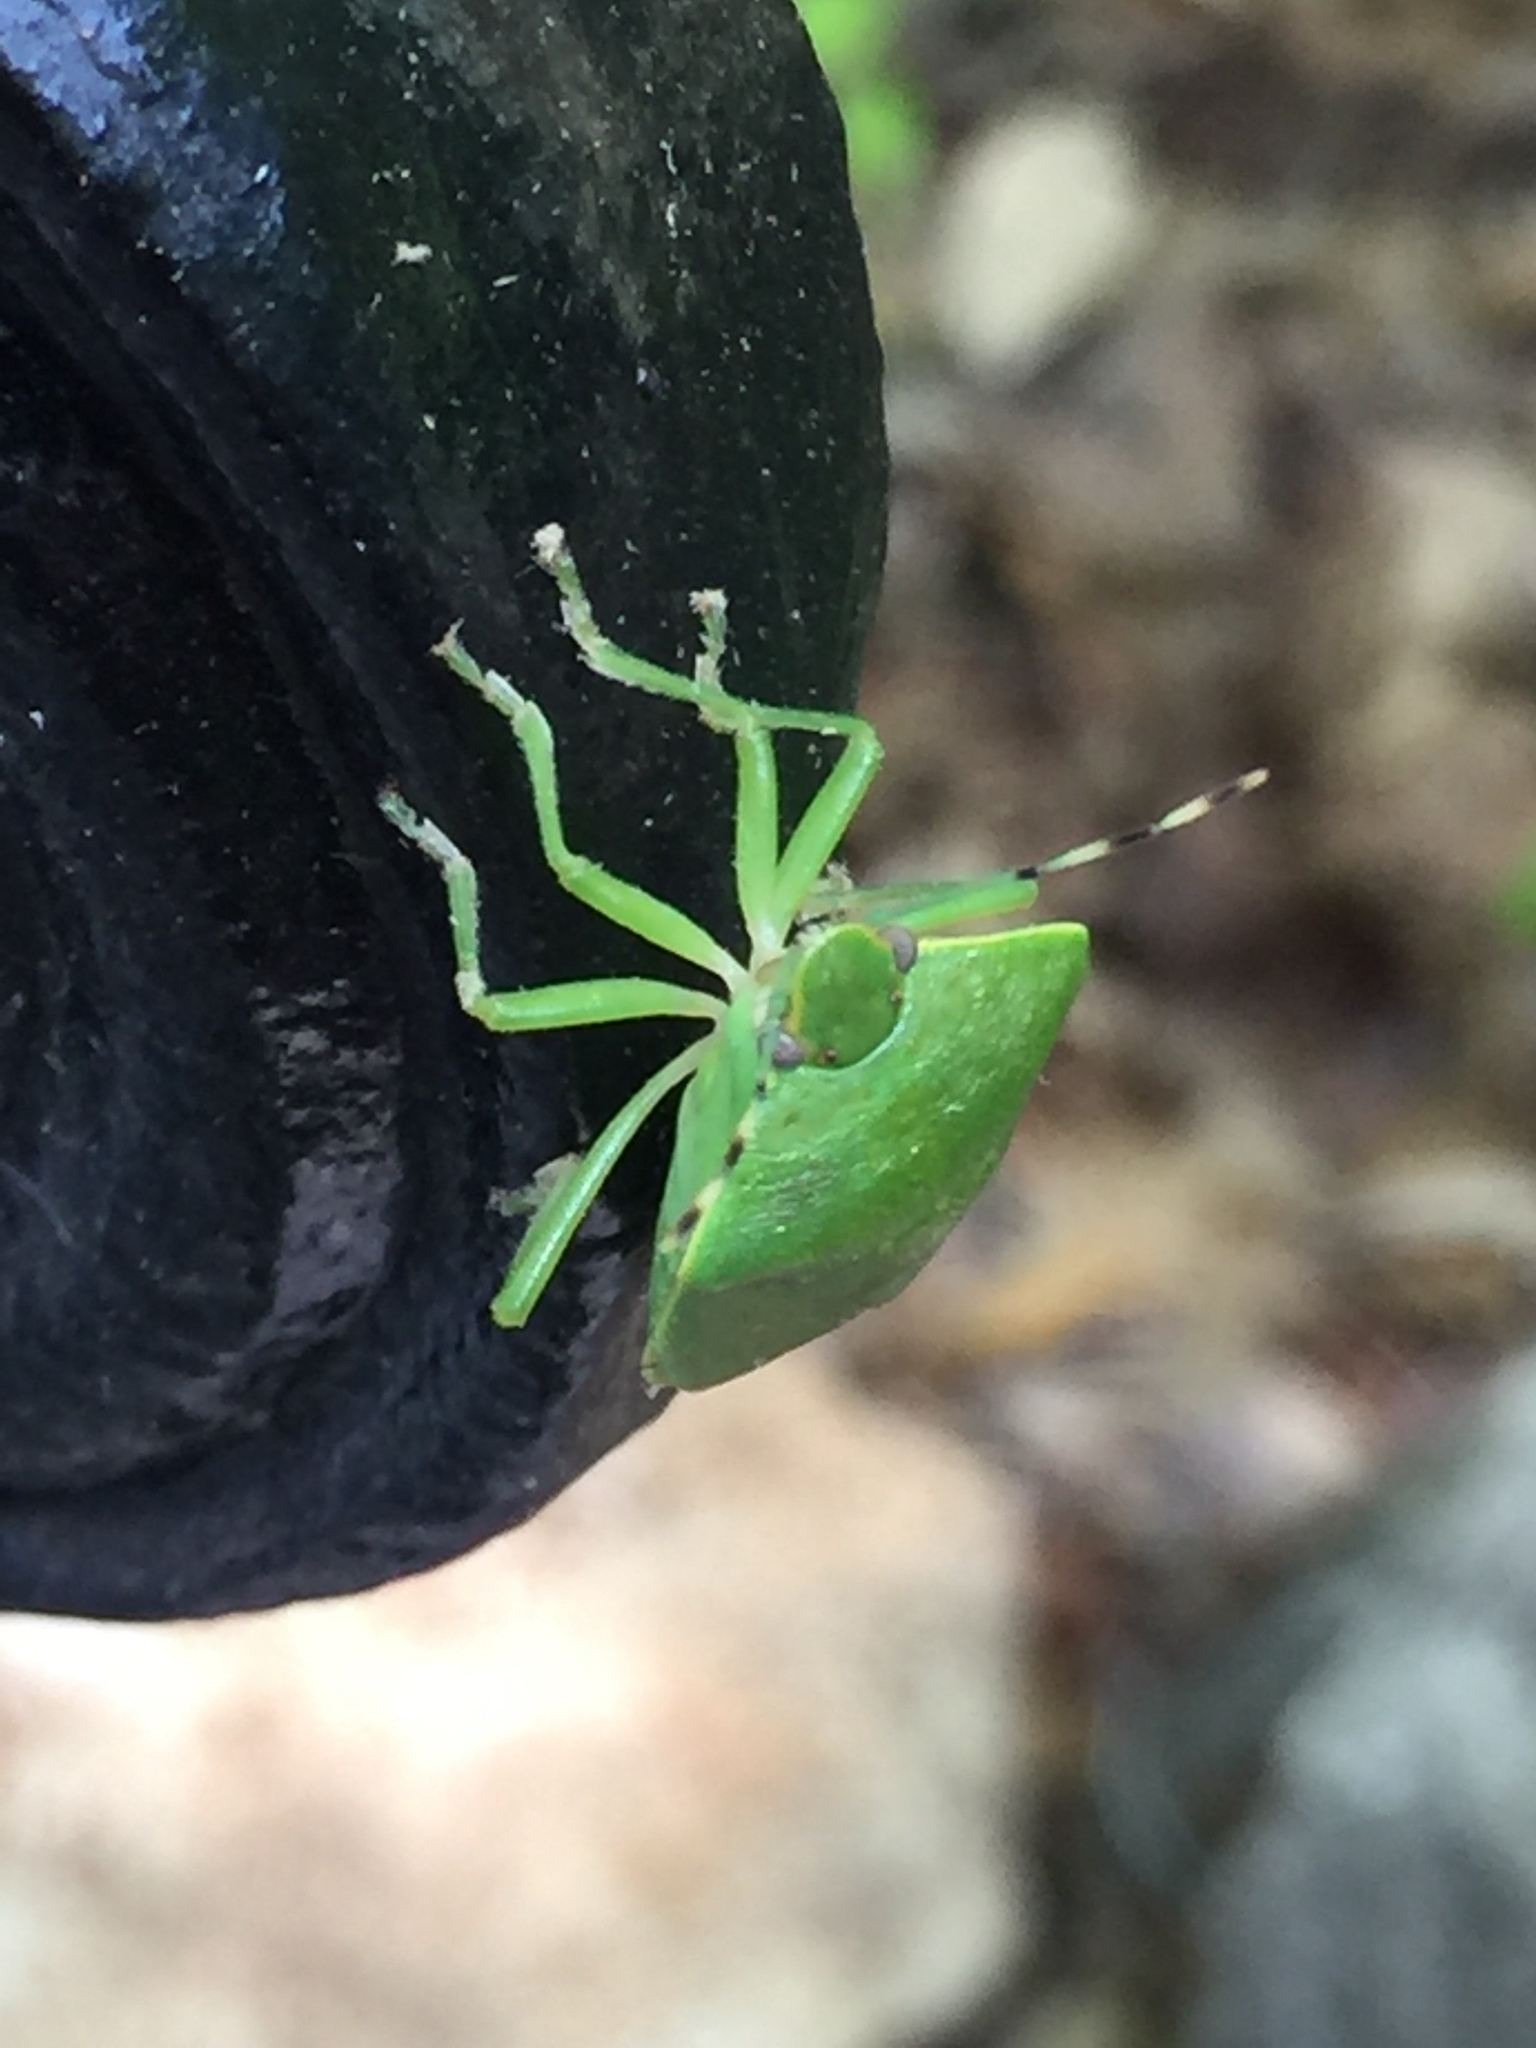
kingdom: Animalia
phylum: Arthropoda
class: Insecta
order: Hemiptera
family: Pentatomidae
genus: Chinavia
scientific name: Chinavia hilaris
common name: Green stink bug
